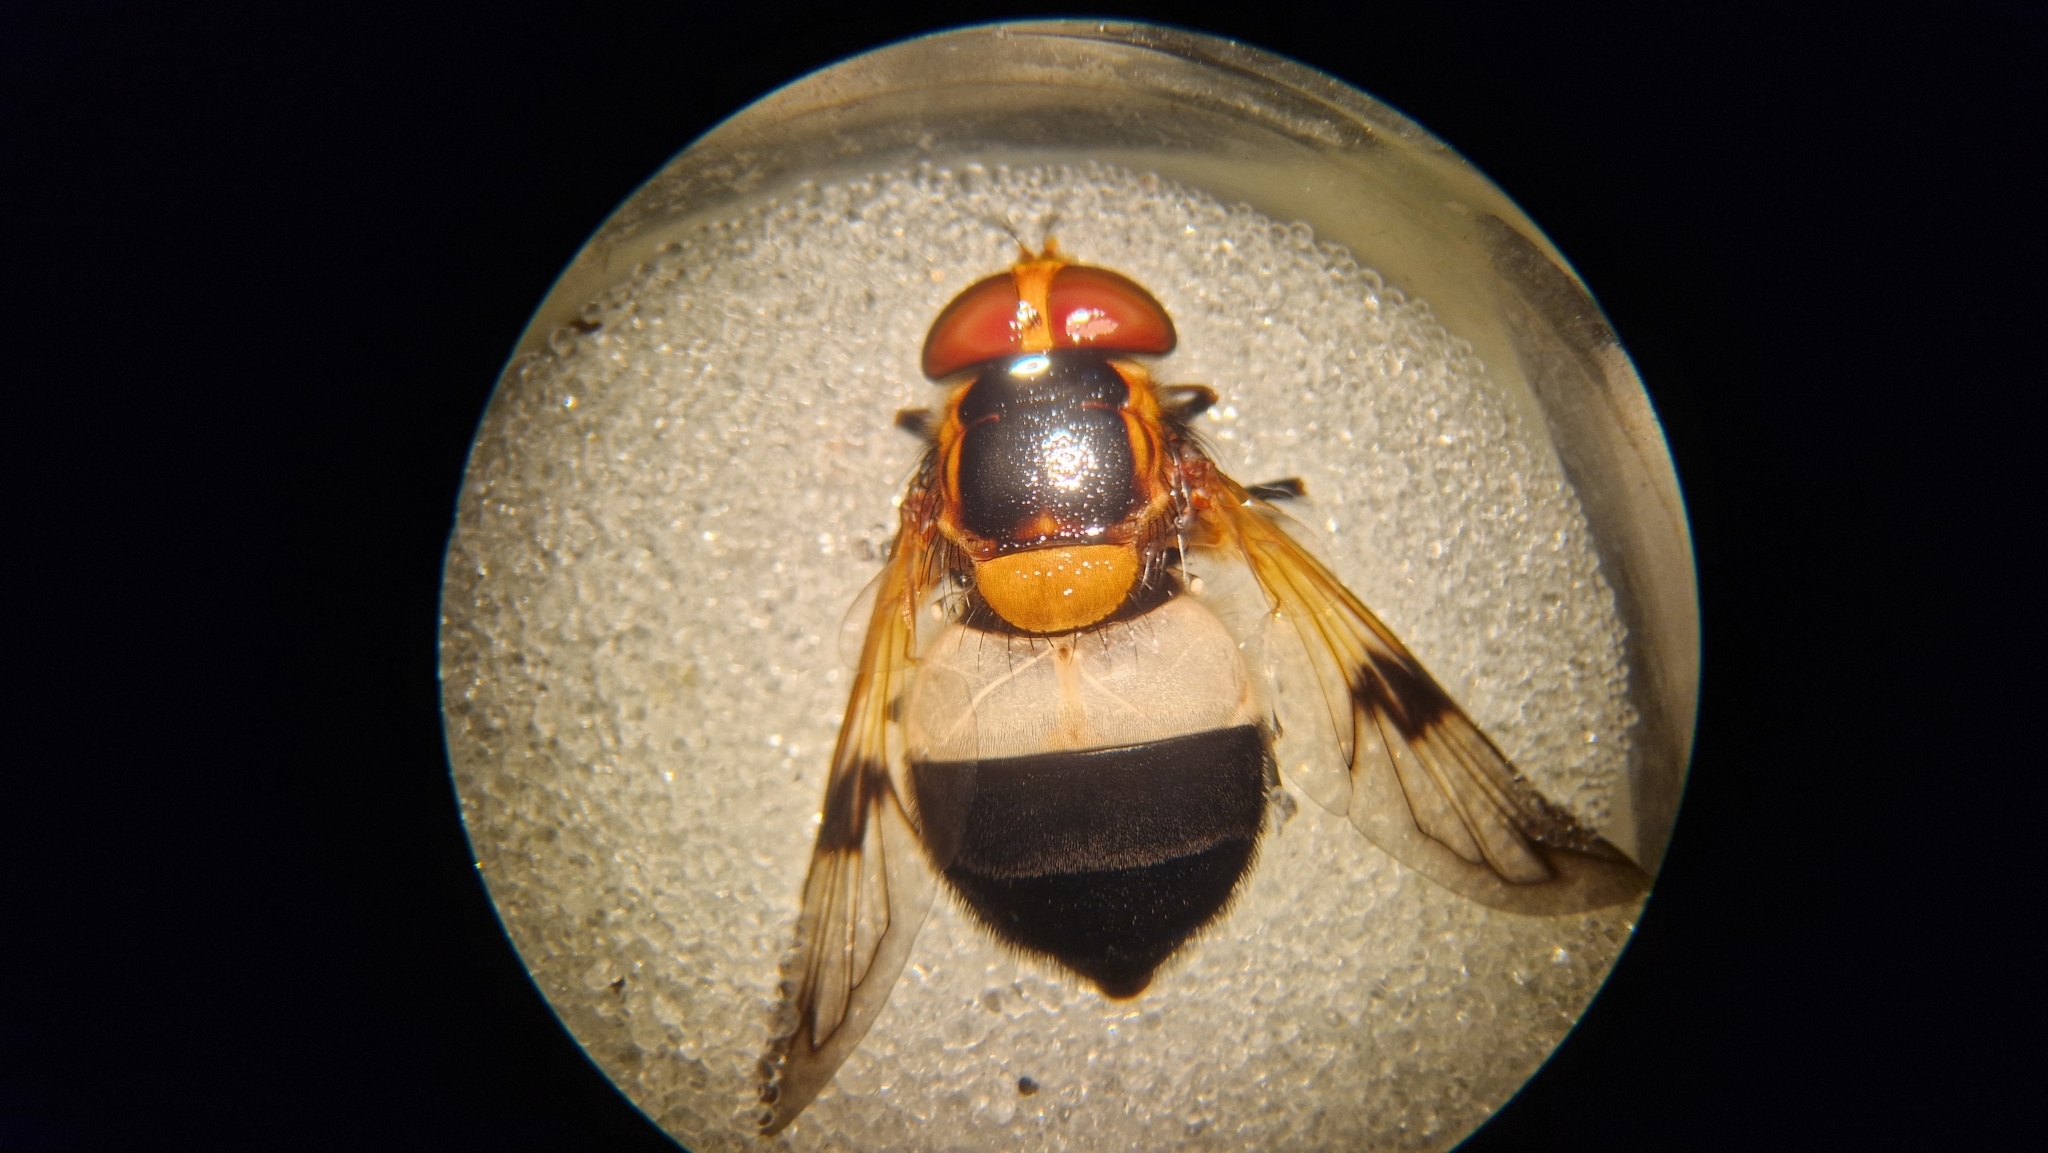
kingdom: Animalia
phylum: Arthropoda
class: Insecta
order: Diptera
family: Syrphidae
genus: Volucella
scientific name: Volucella pellucens
